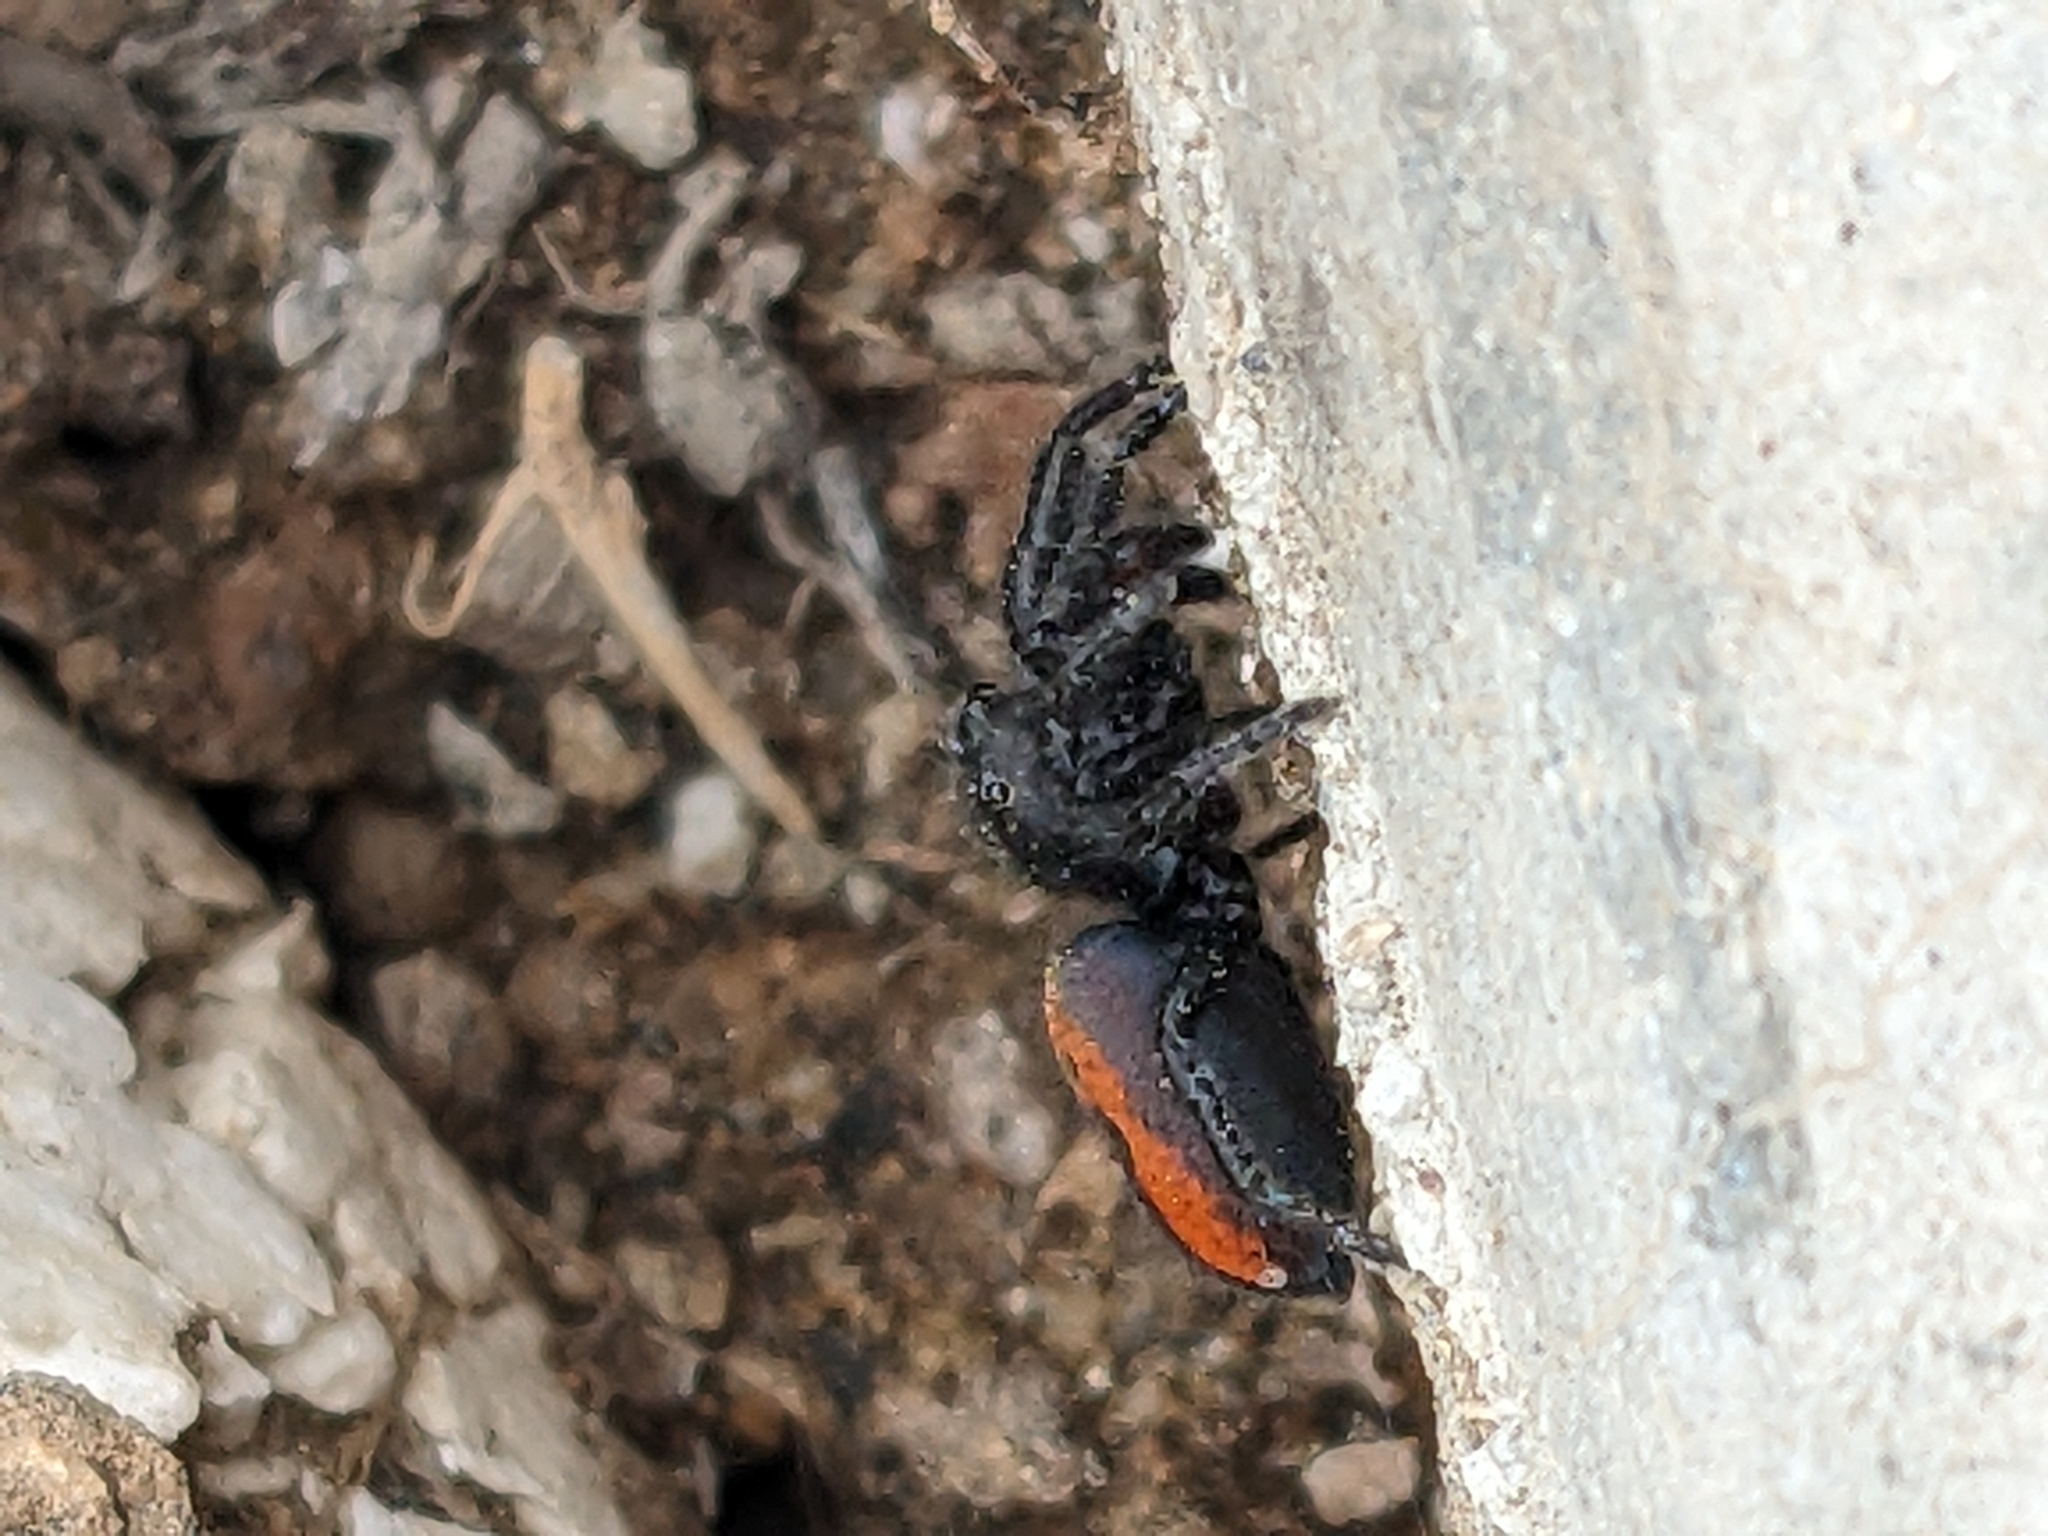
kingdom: Animalia
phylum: Arthropoda
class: Arachnida
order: Araneae
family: Salticidae
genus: Phidippus
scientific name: Phidippus johnsoni
